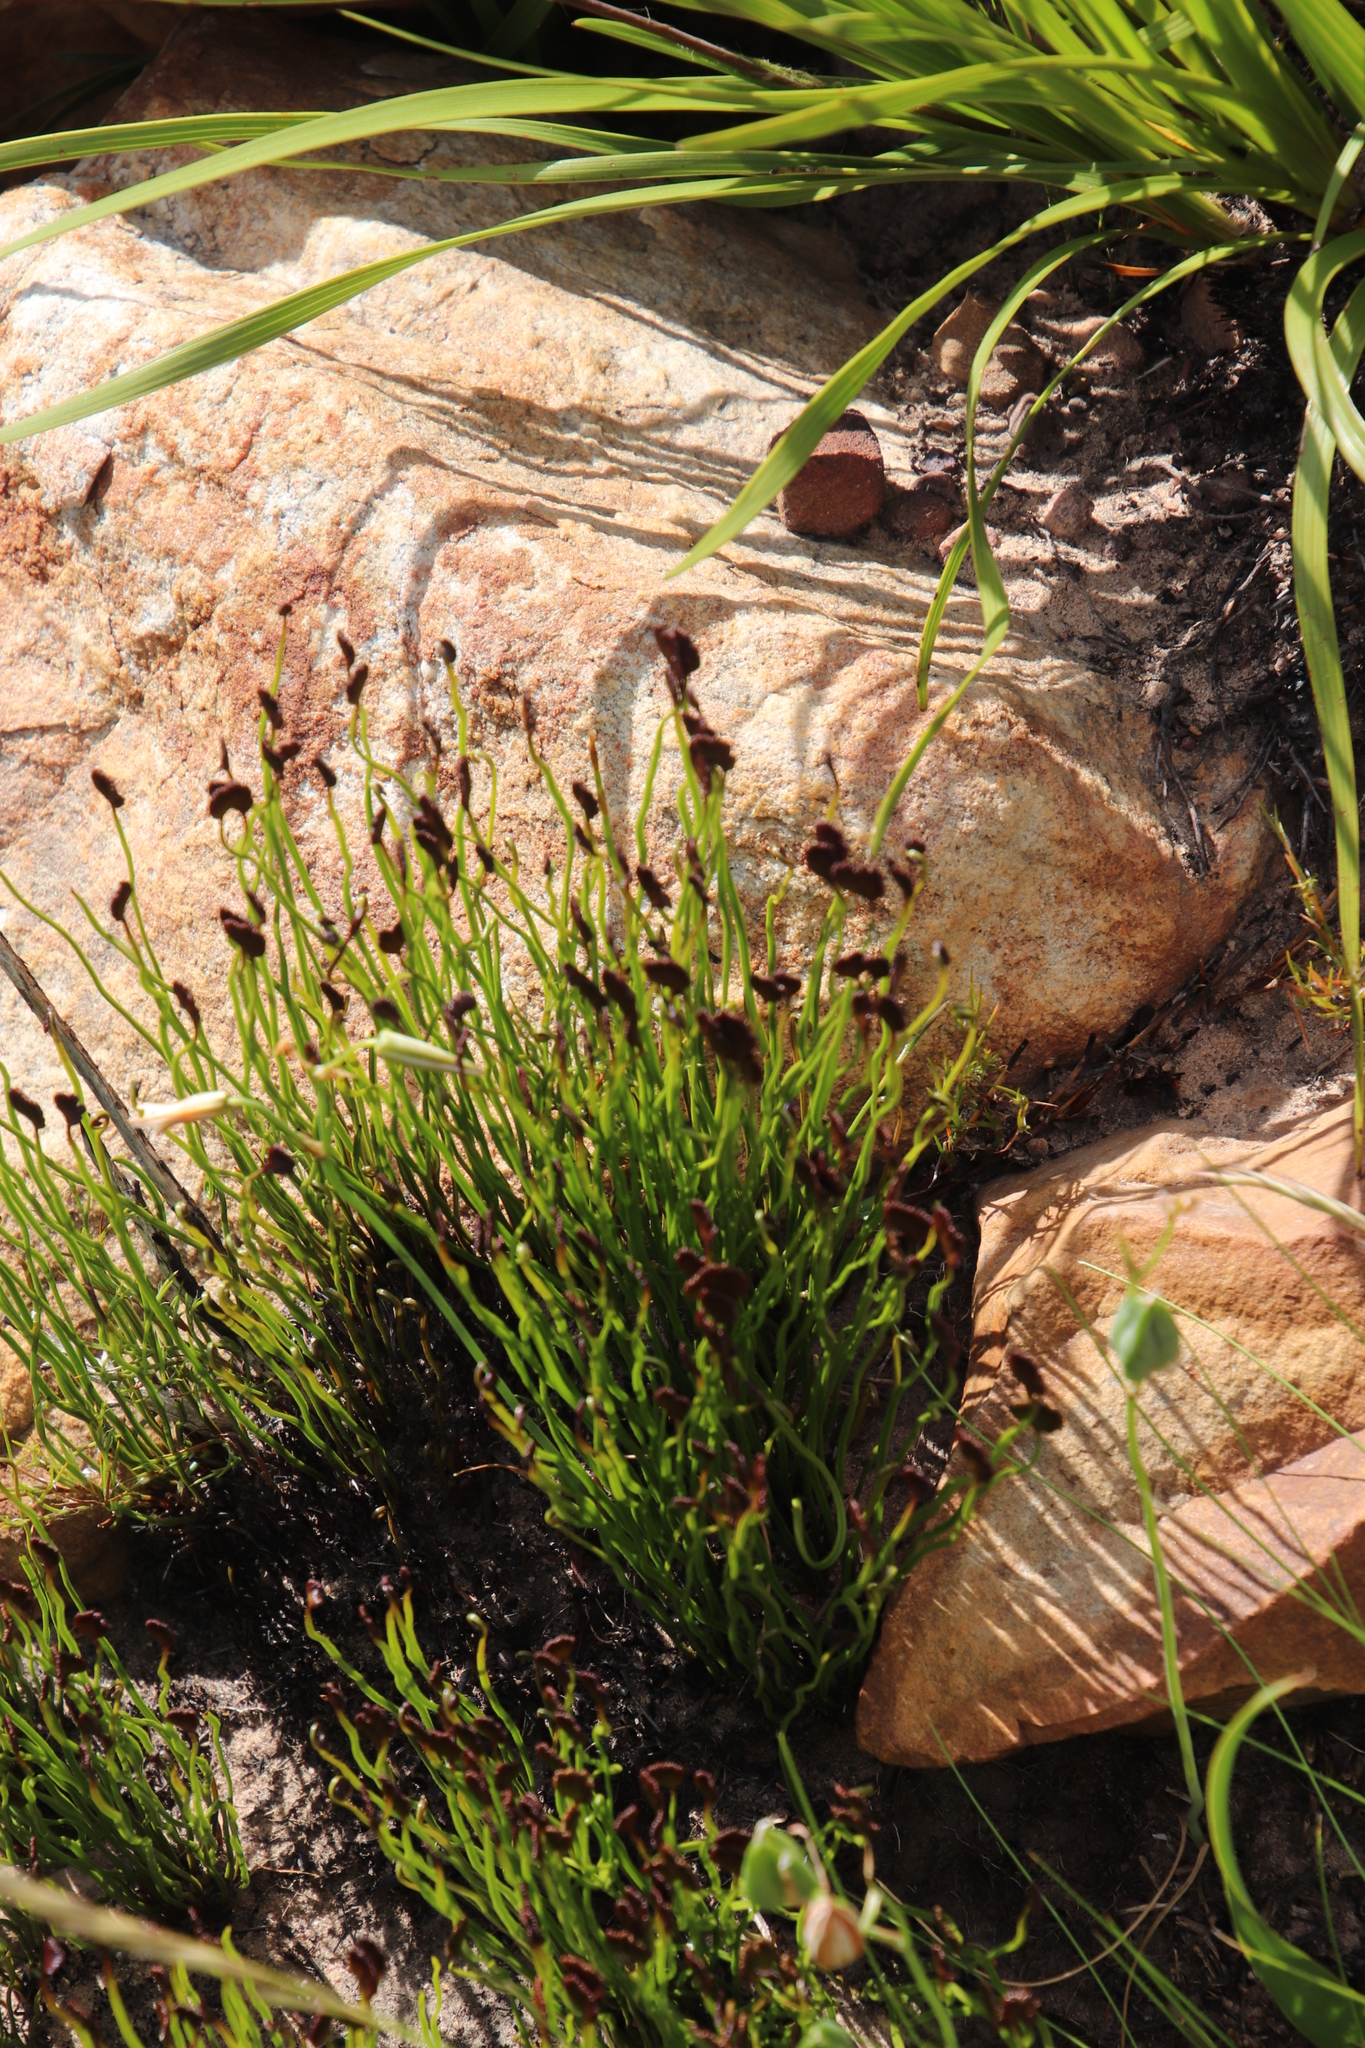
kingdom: Plantae
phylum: Tracheophyta
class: Polypodiopsida
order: Schizaeales
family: Schizaeaceae
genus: Schizaea
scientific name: Schizaea pectinata
